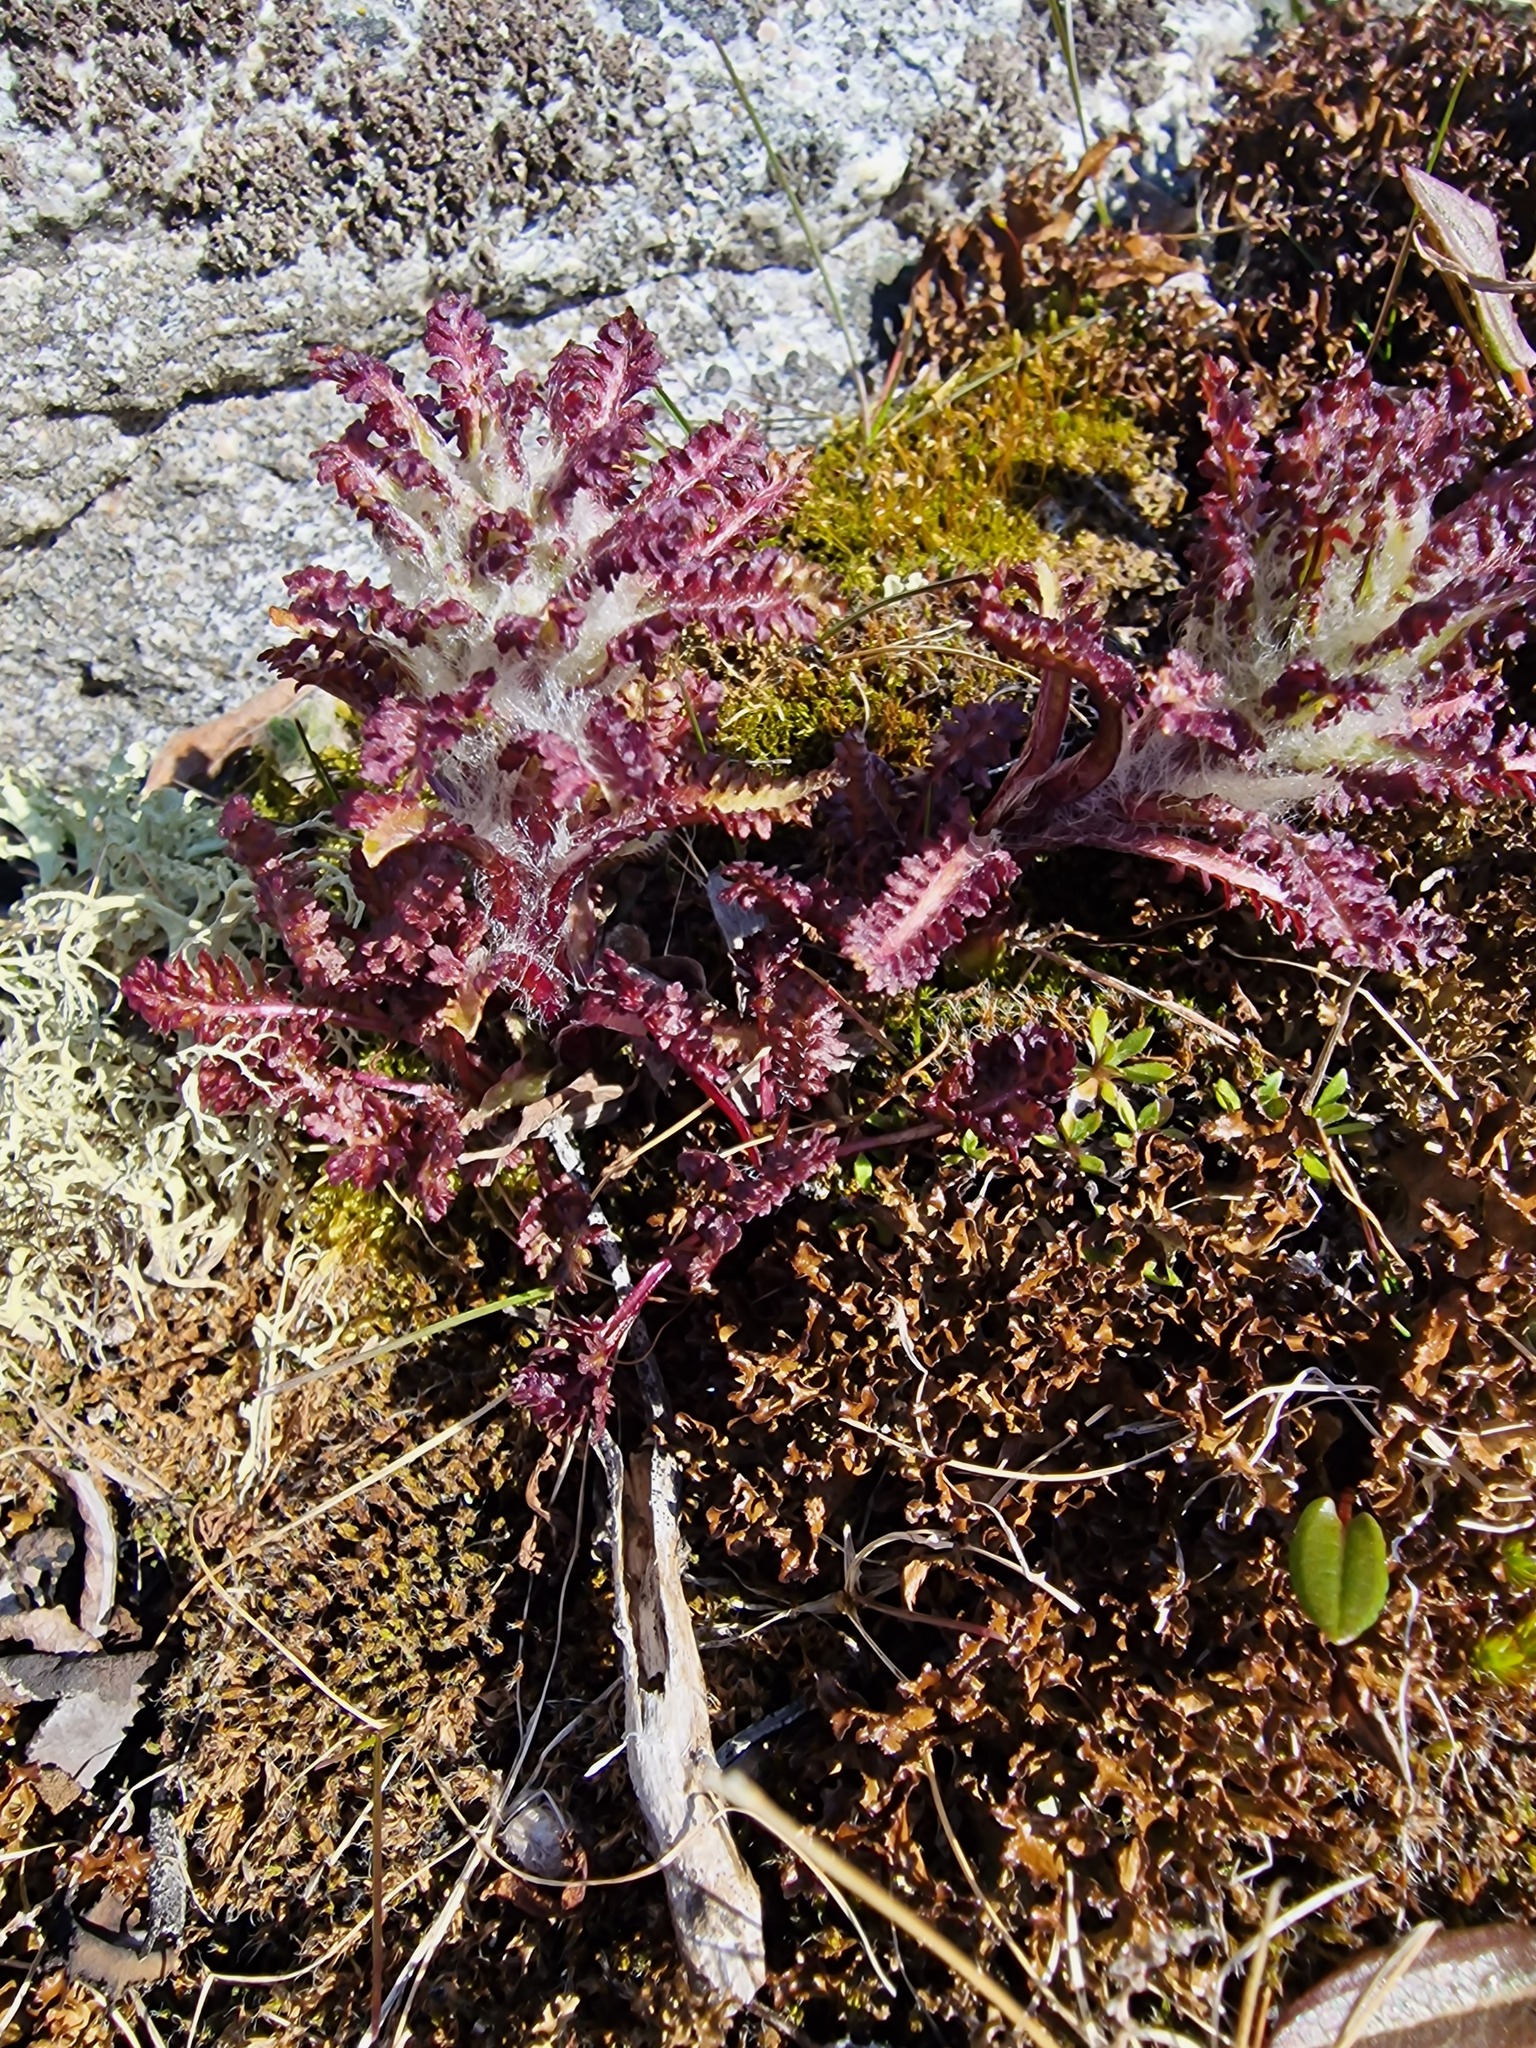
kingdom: Plantae
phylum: Tracheophyta
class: Magnoliopsida
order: Lamiales
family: Orobanchaceae
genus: Pedicularis
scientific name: Pedicularis lanata
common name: Woolly lousewort
